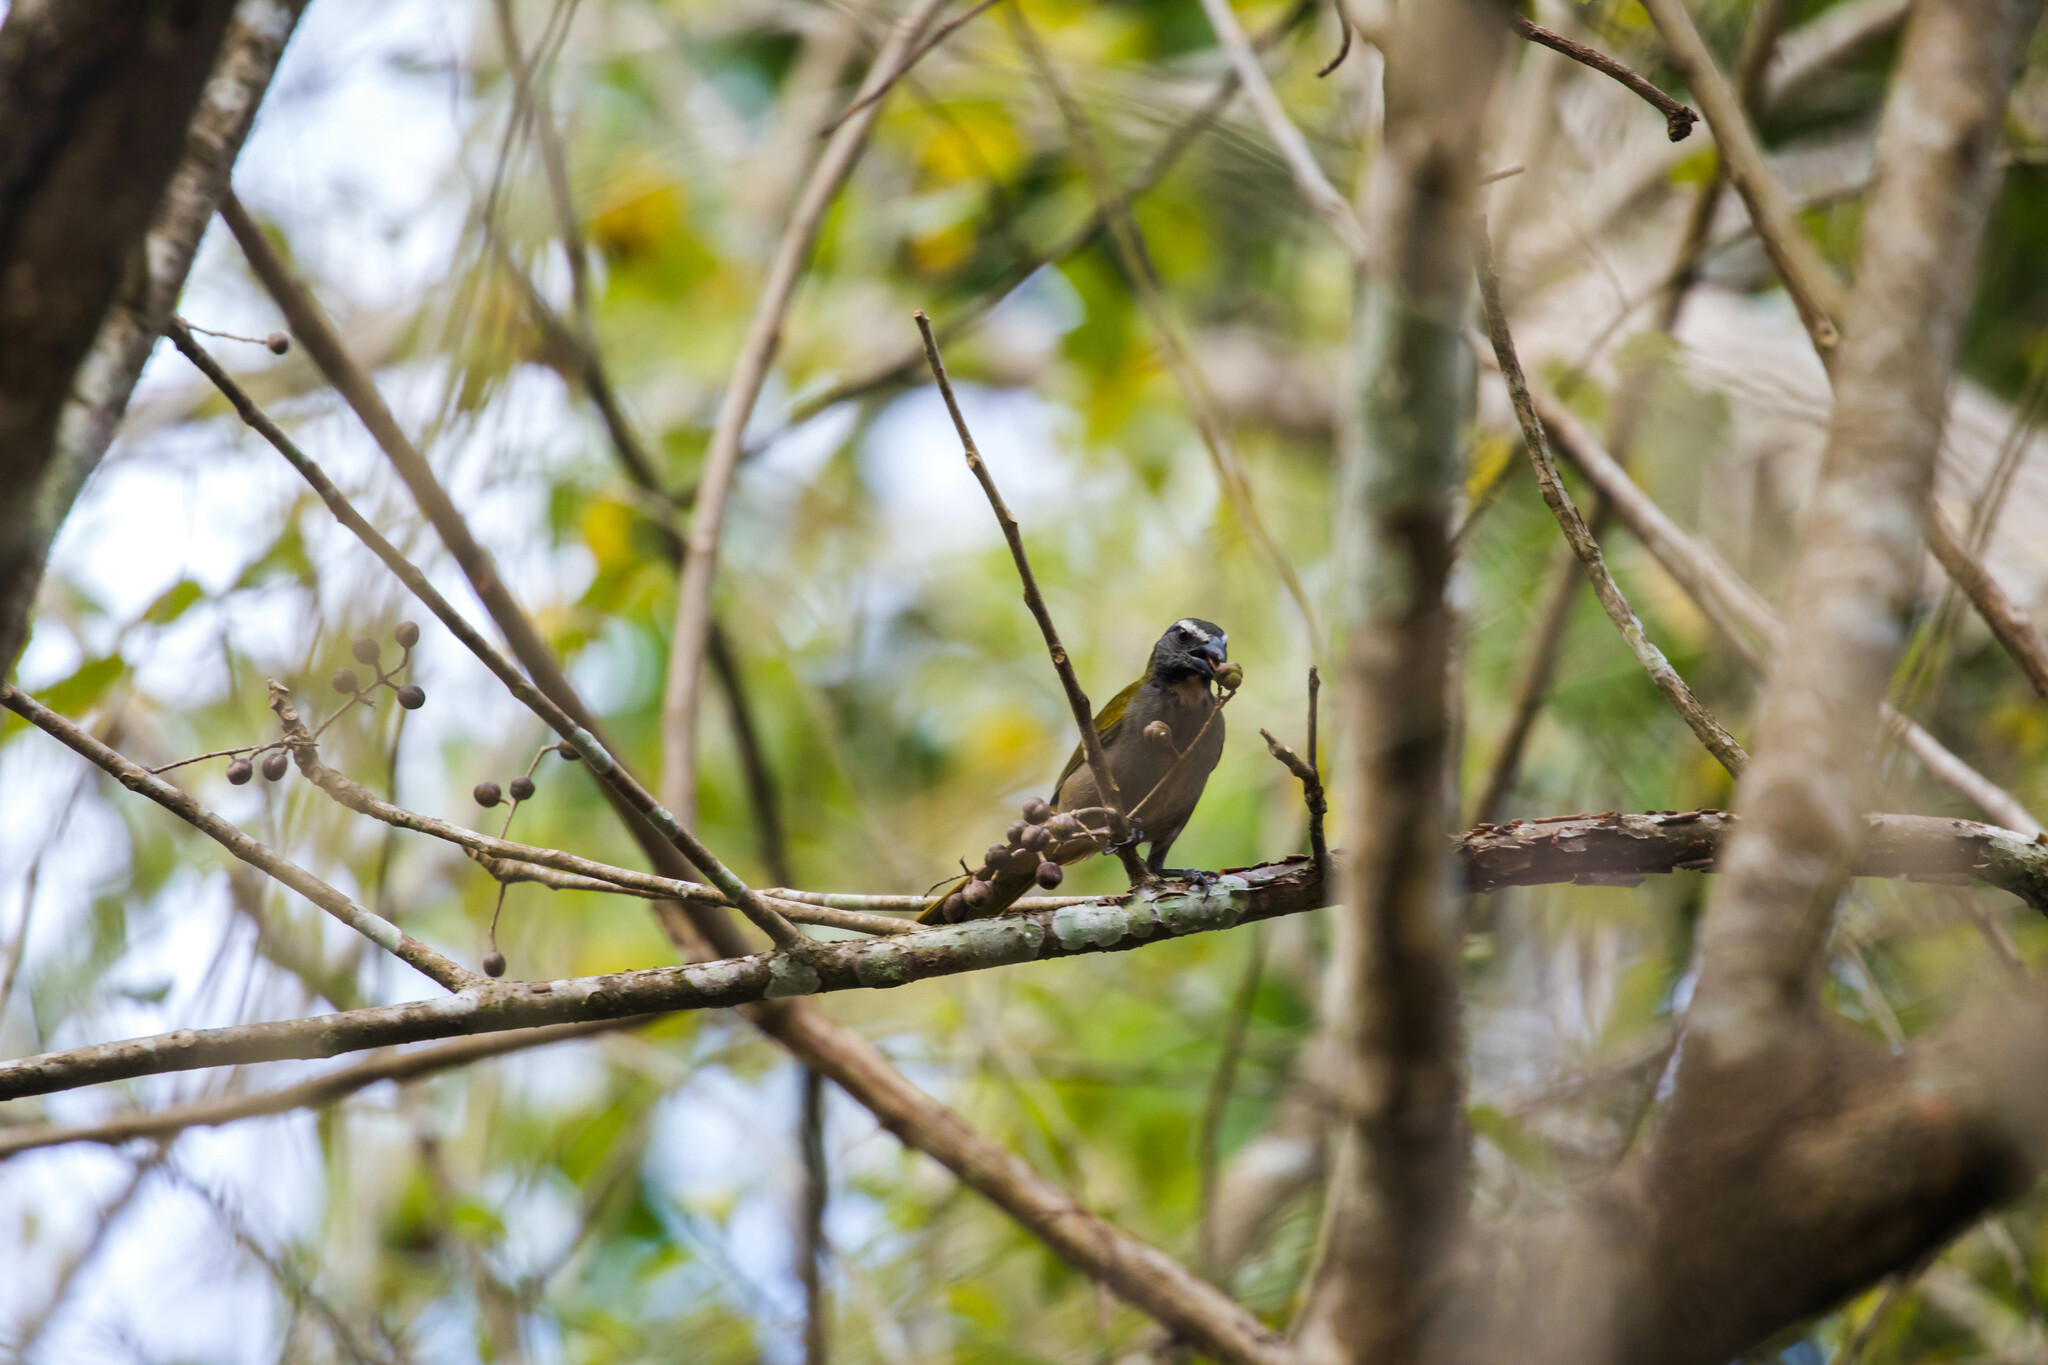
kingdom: Animalia
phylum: Chordata
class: Aves
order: Passeriformes
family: Thraupidae
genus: Saltator
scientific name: Saltator maximus
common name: Buff-throated saltator
